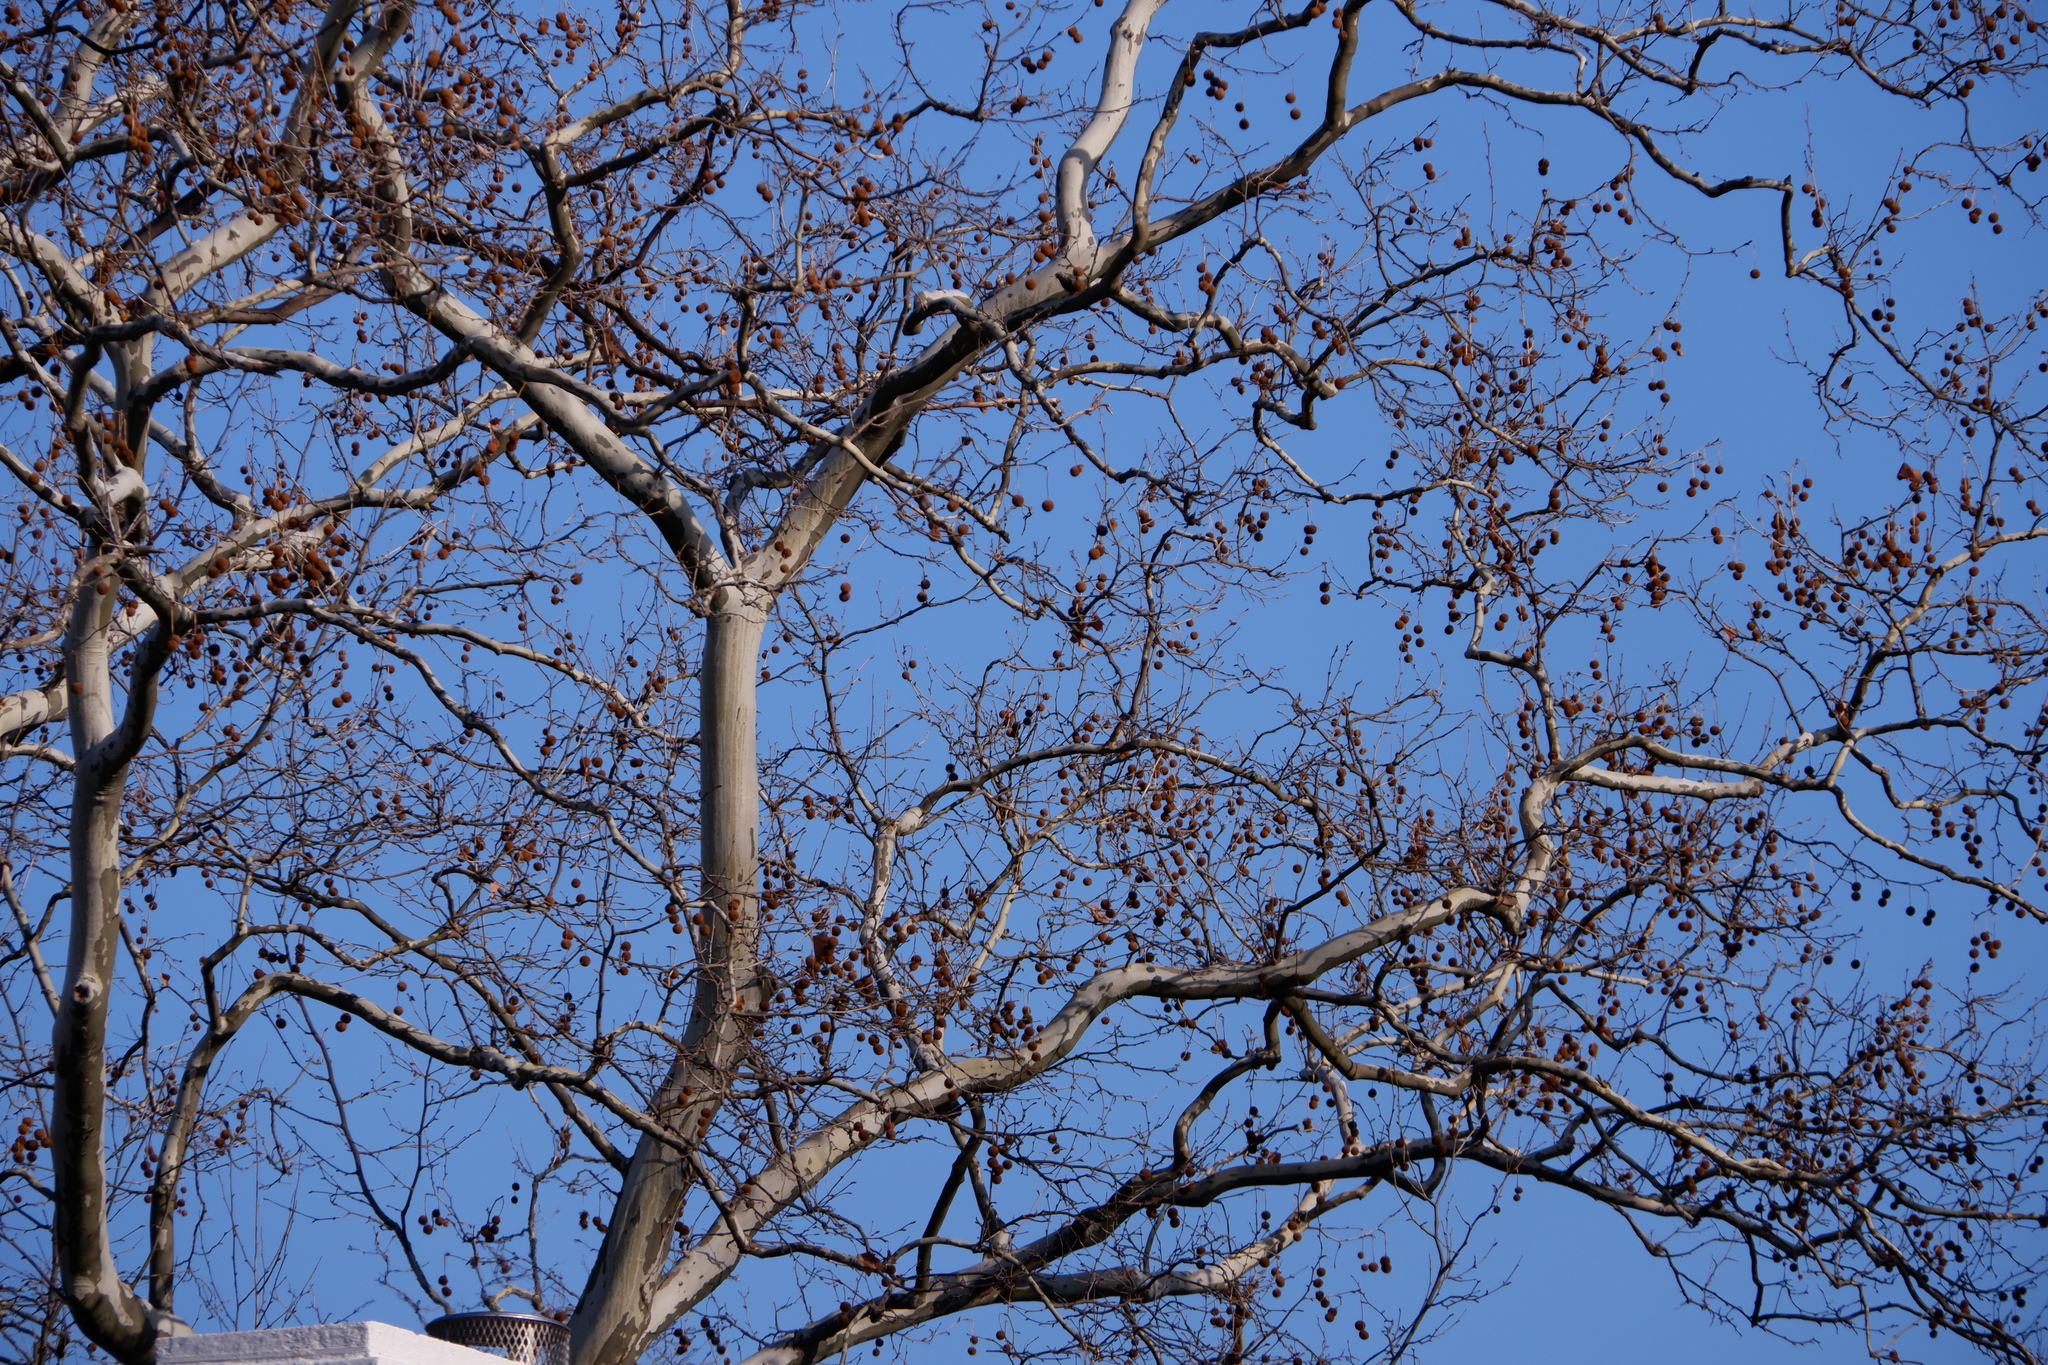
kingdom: Animalia
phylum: Chordata
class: Aves
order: Passeriformes
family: Sturnidae
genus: Sturnus
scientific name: Sturnus vulgaris
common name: Common starling
